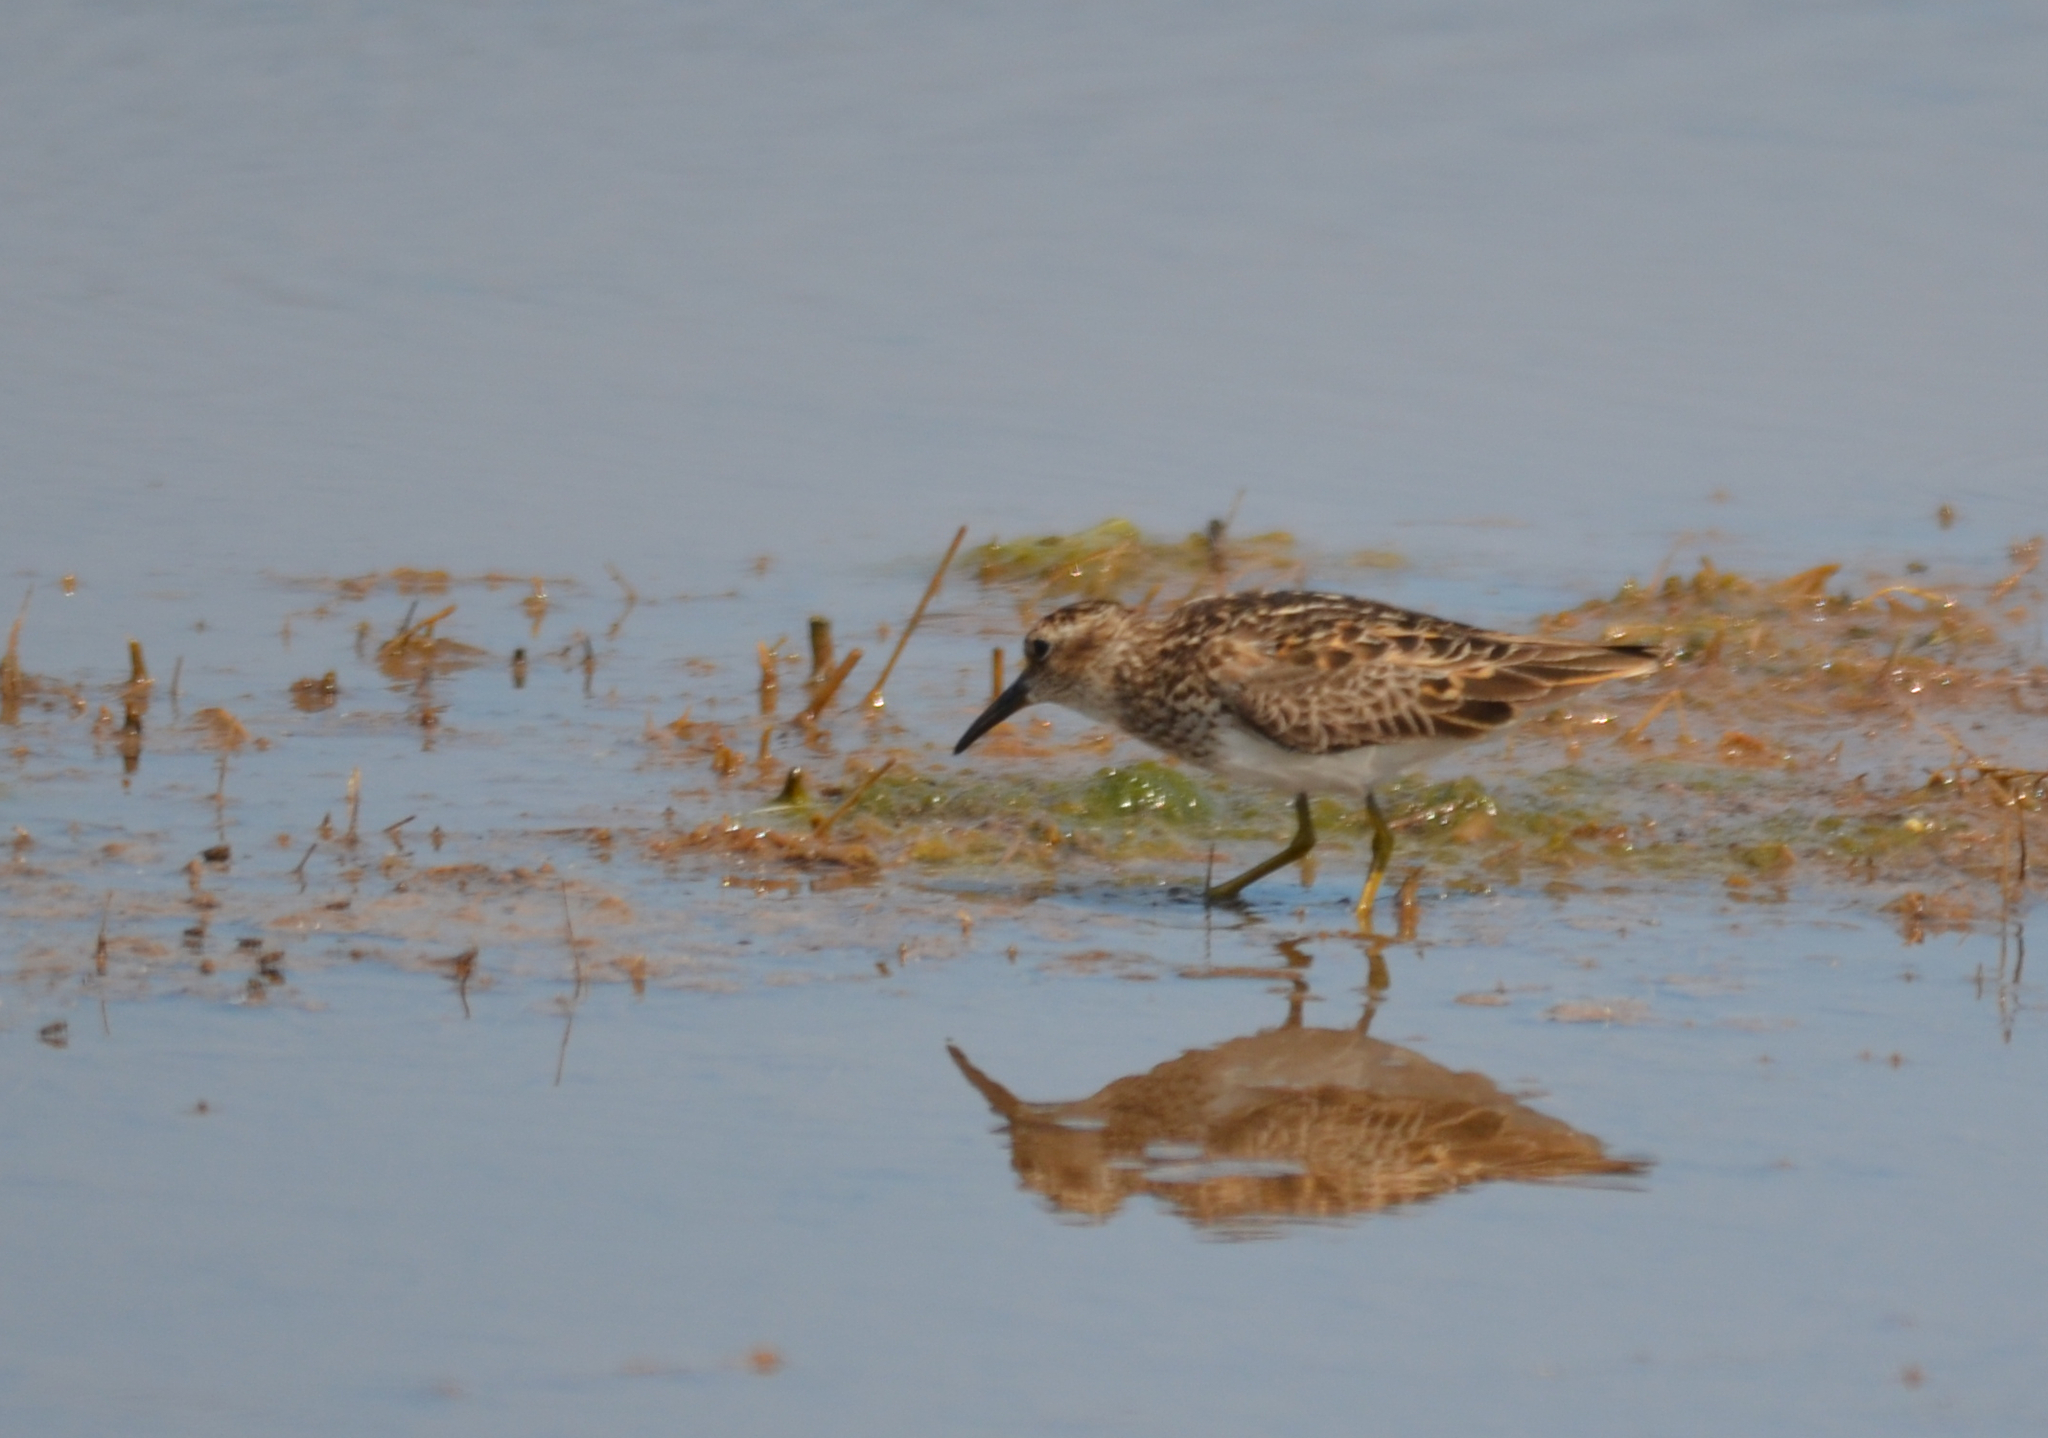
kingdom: Animalia
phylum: Chordata
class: Aves
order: Charadriiformes
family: Scolopacidae
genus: Calidris
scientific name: Calidris minutilla
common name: Least sandpiper
